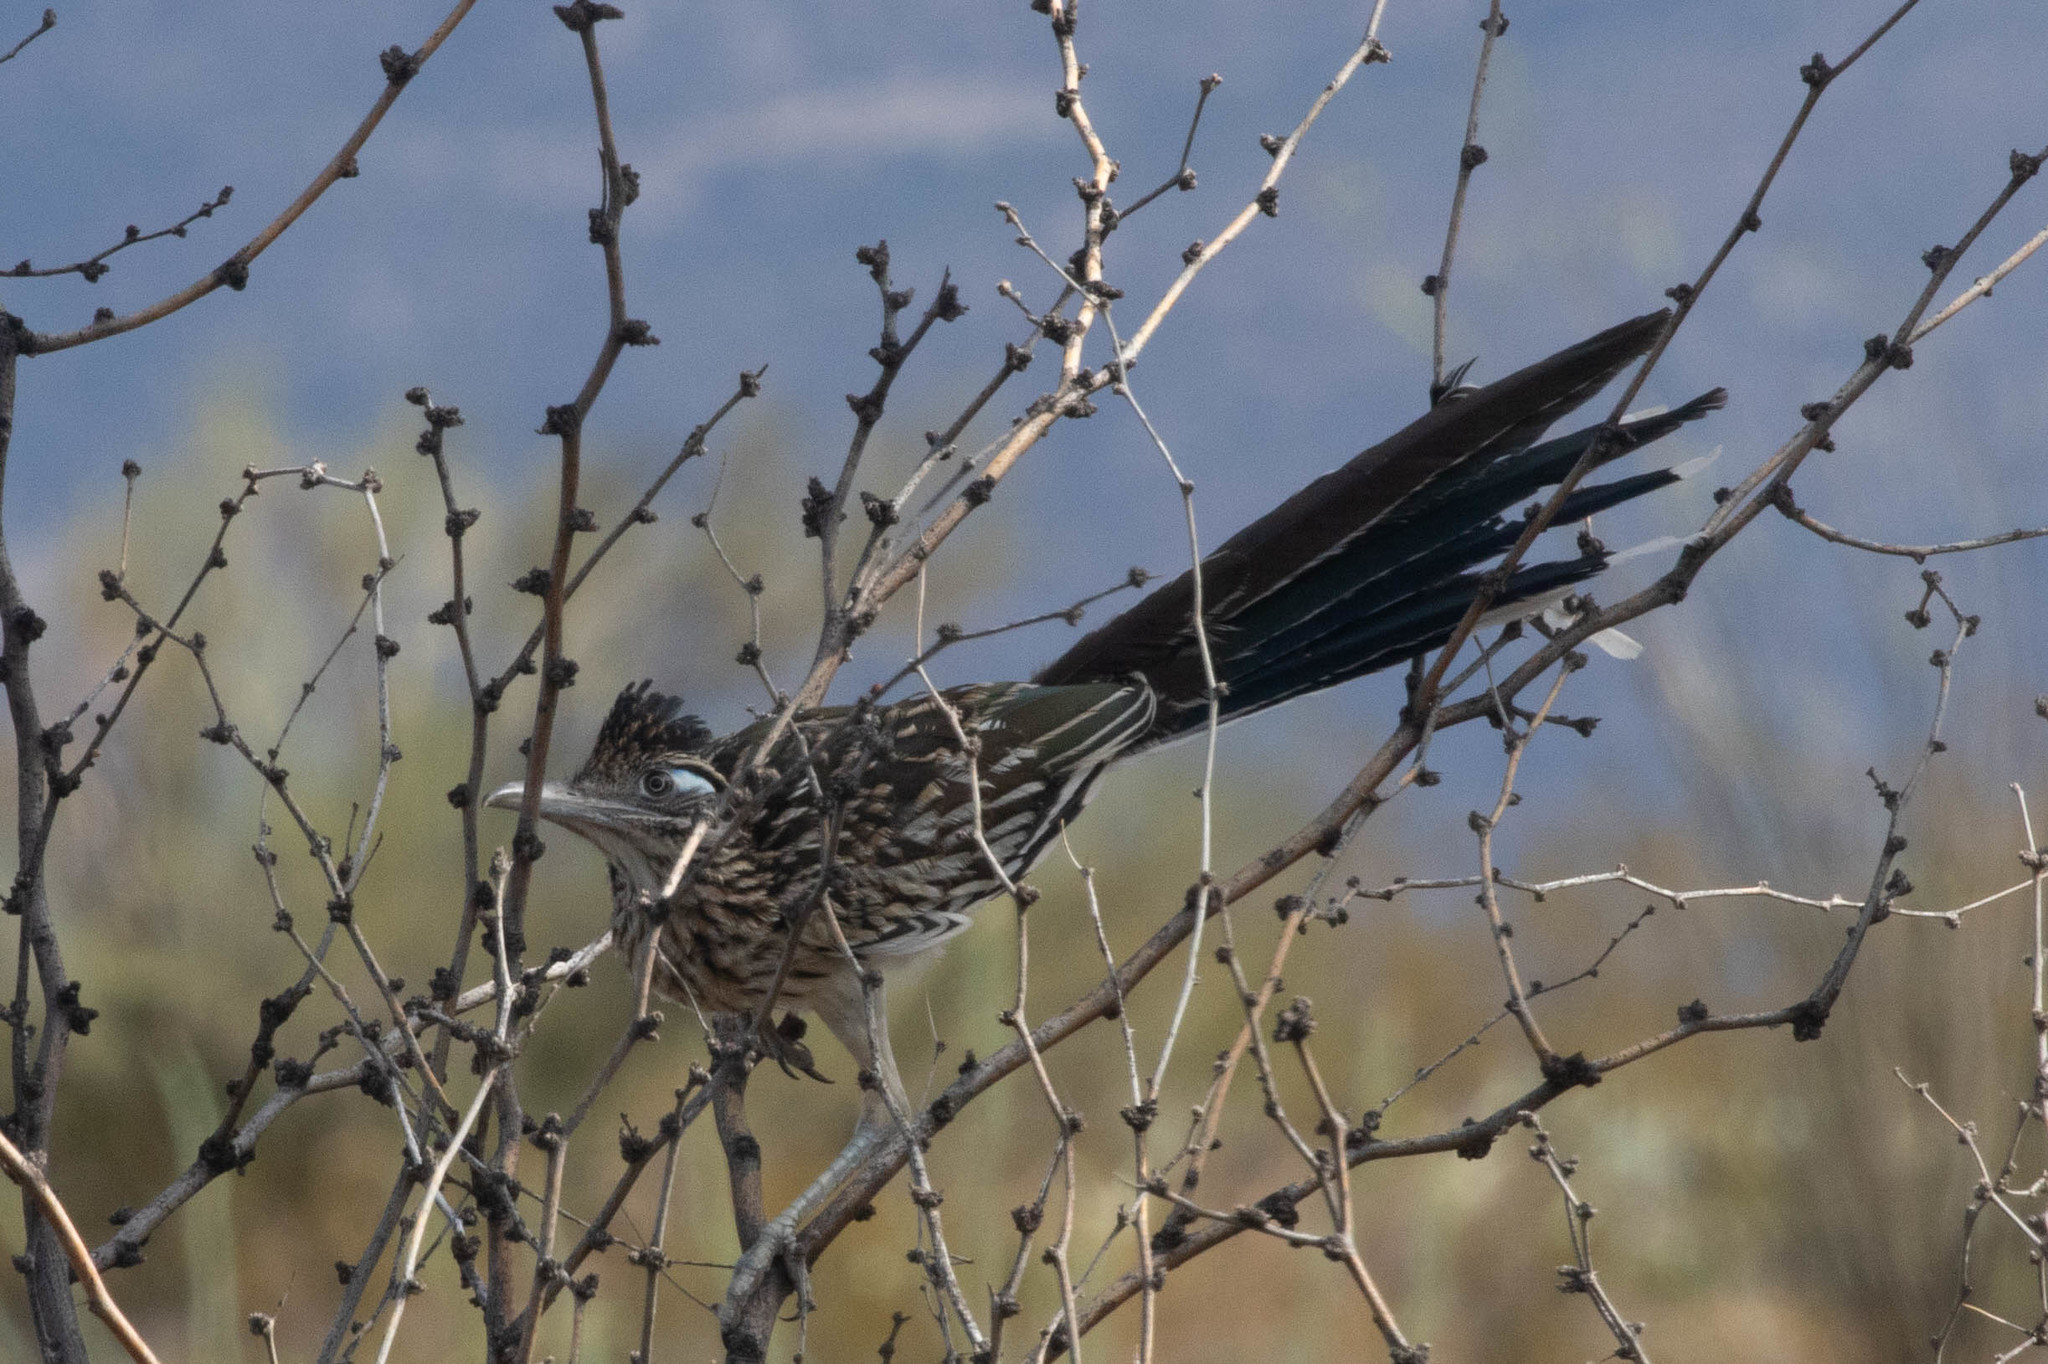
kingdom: Animalia
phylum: Chordata
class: Aves
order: Cuculiformes
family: Cuculidae
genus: Geococcyx
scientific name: Geococcyx californianus
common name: Greater roadrunner
